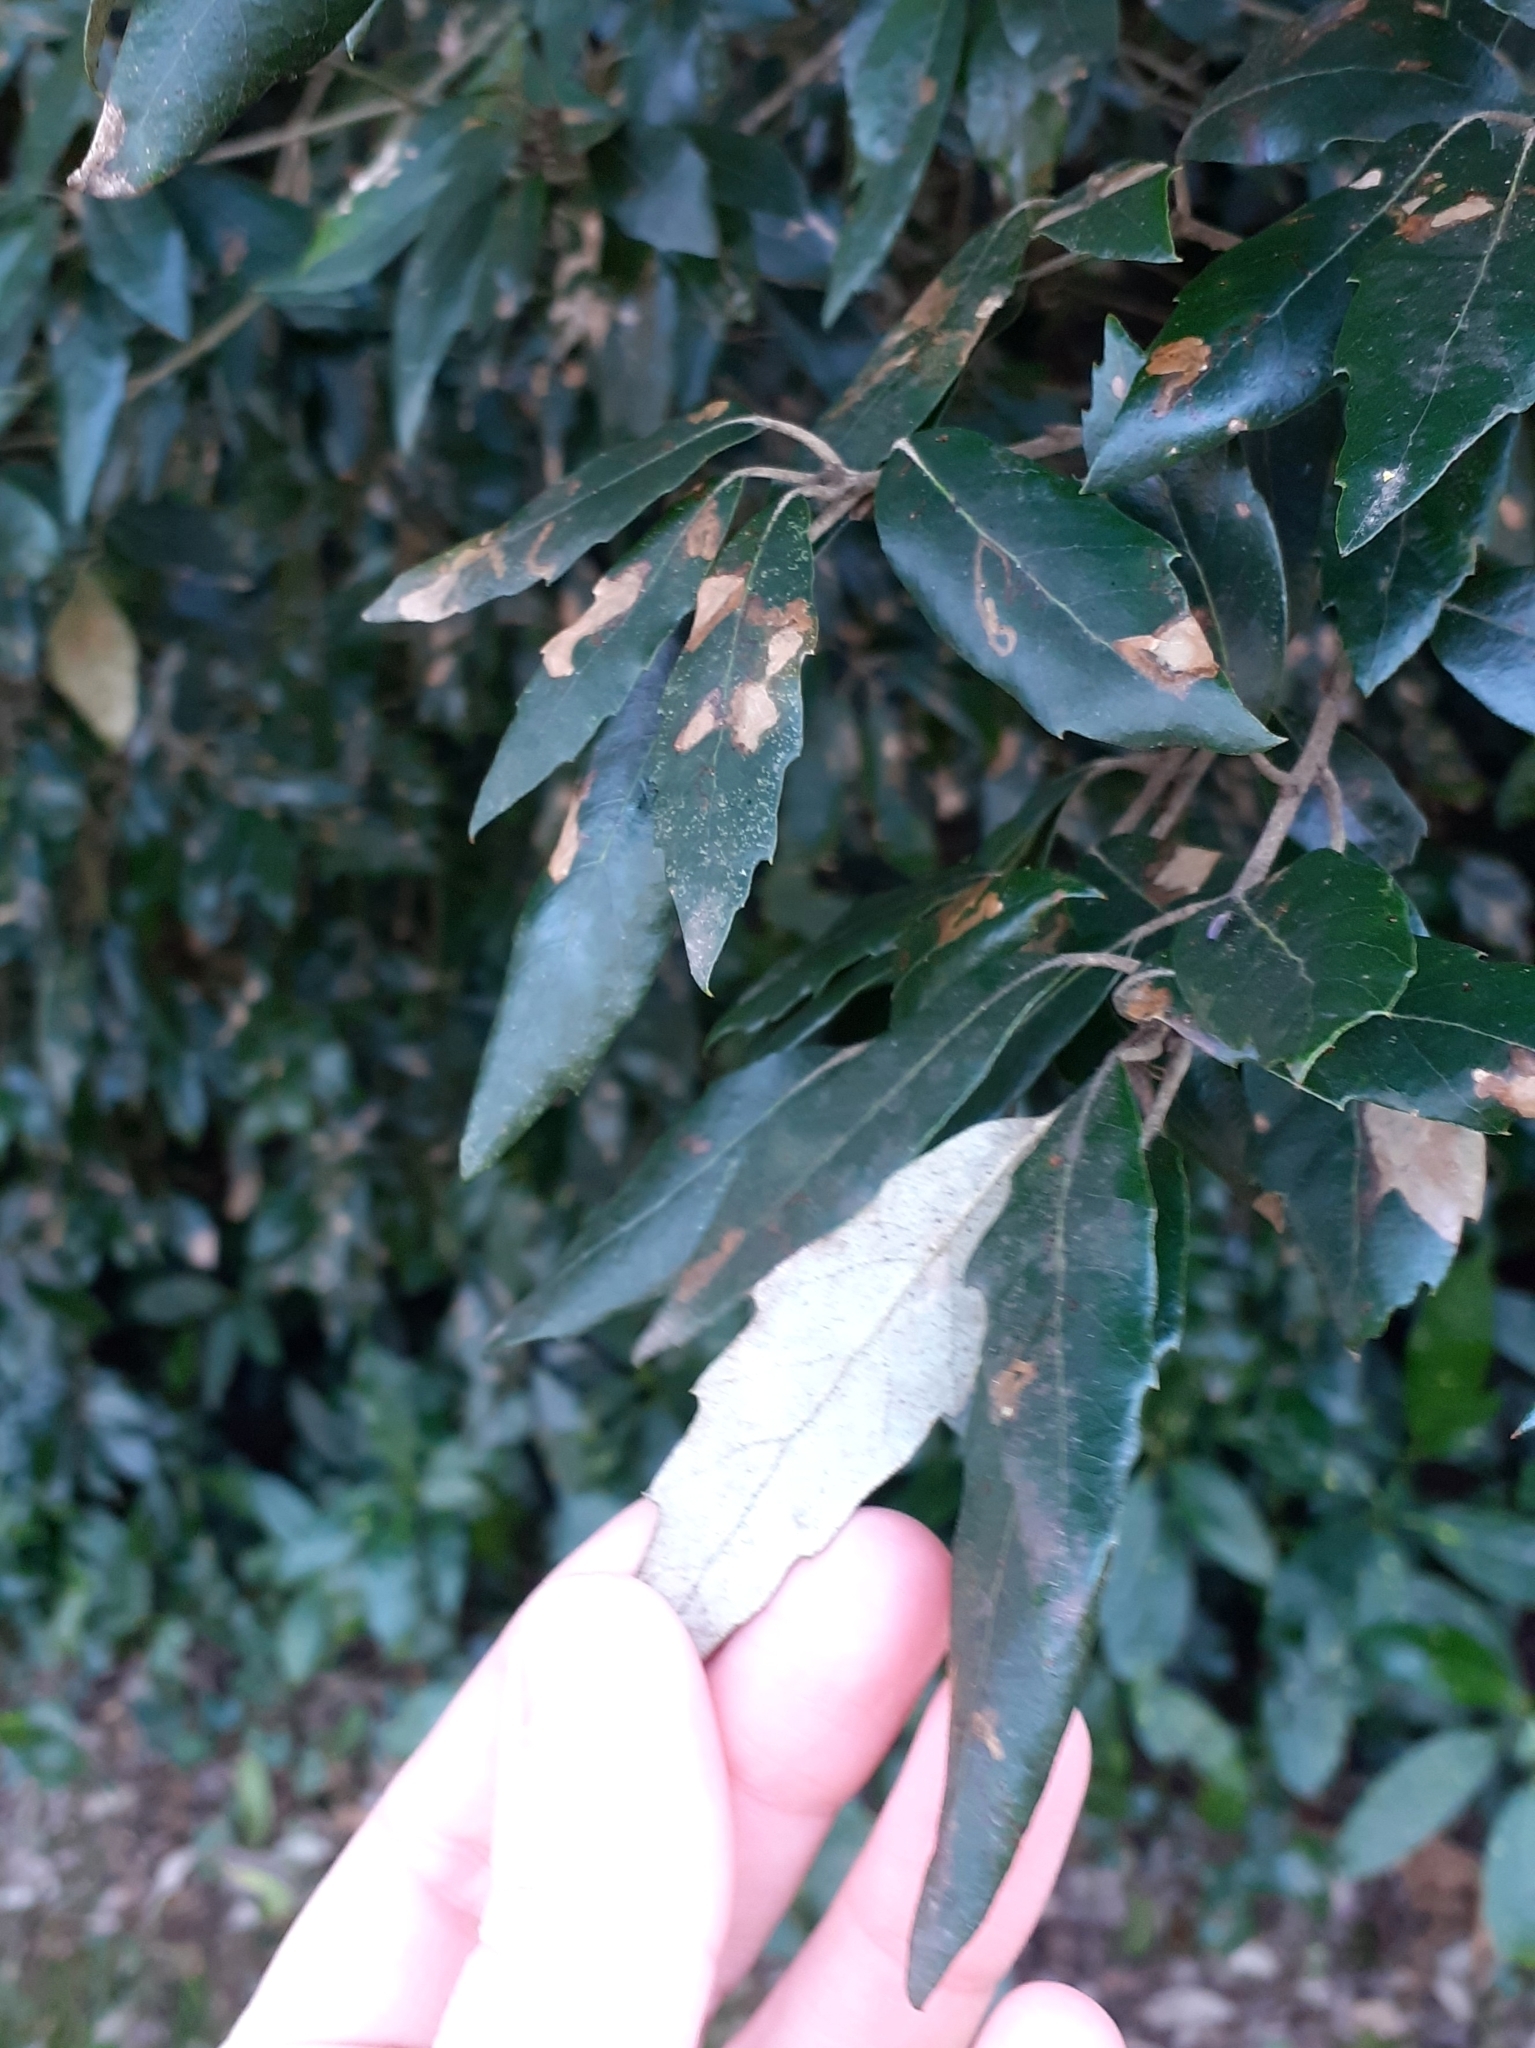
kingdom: Plantae
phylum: Tracheophyta
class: Magnoliopsida
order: Fagales
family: Fagaceae
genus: Quercus
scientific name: Quercus ilex
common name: Evergreen oak
